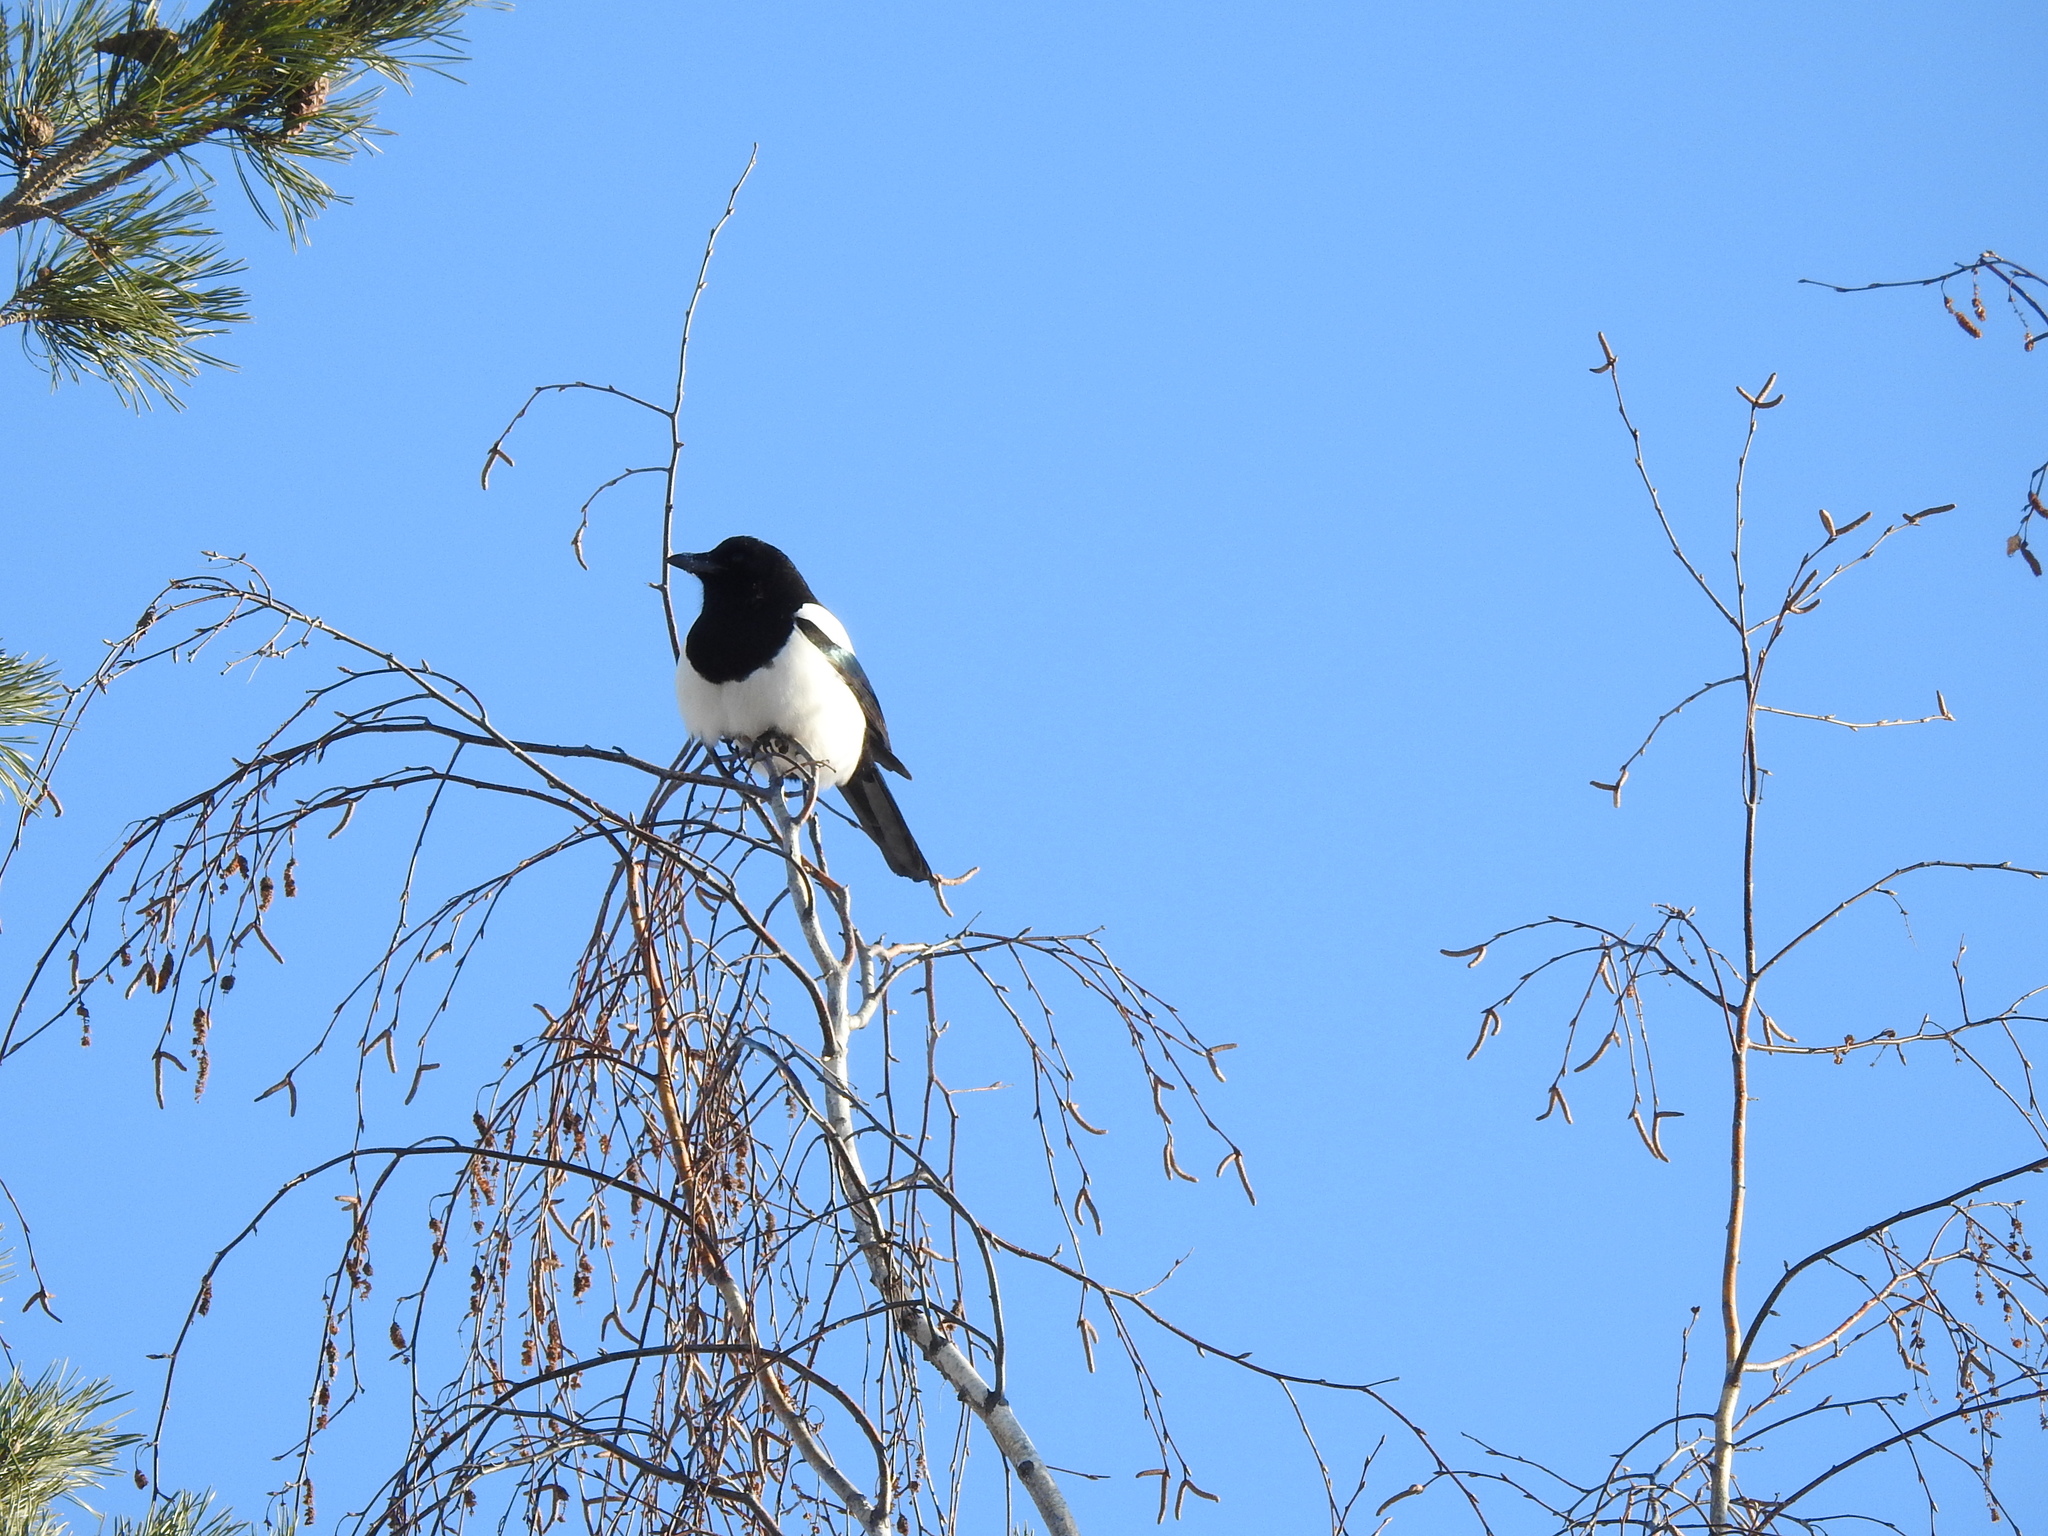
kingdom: Animalia
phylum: Chordata
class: Aves
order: Passeriformes
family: Corvidae
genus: Pica
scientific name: Pica pica
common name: Eurasian magpie
